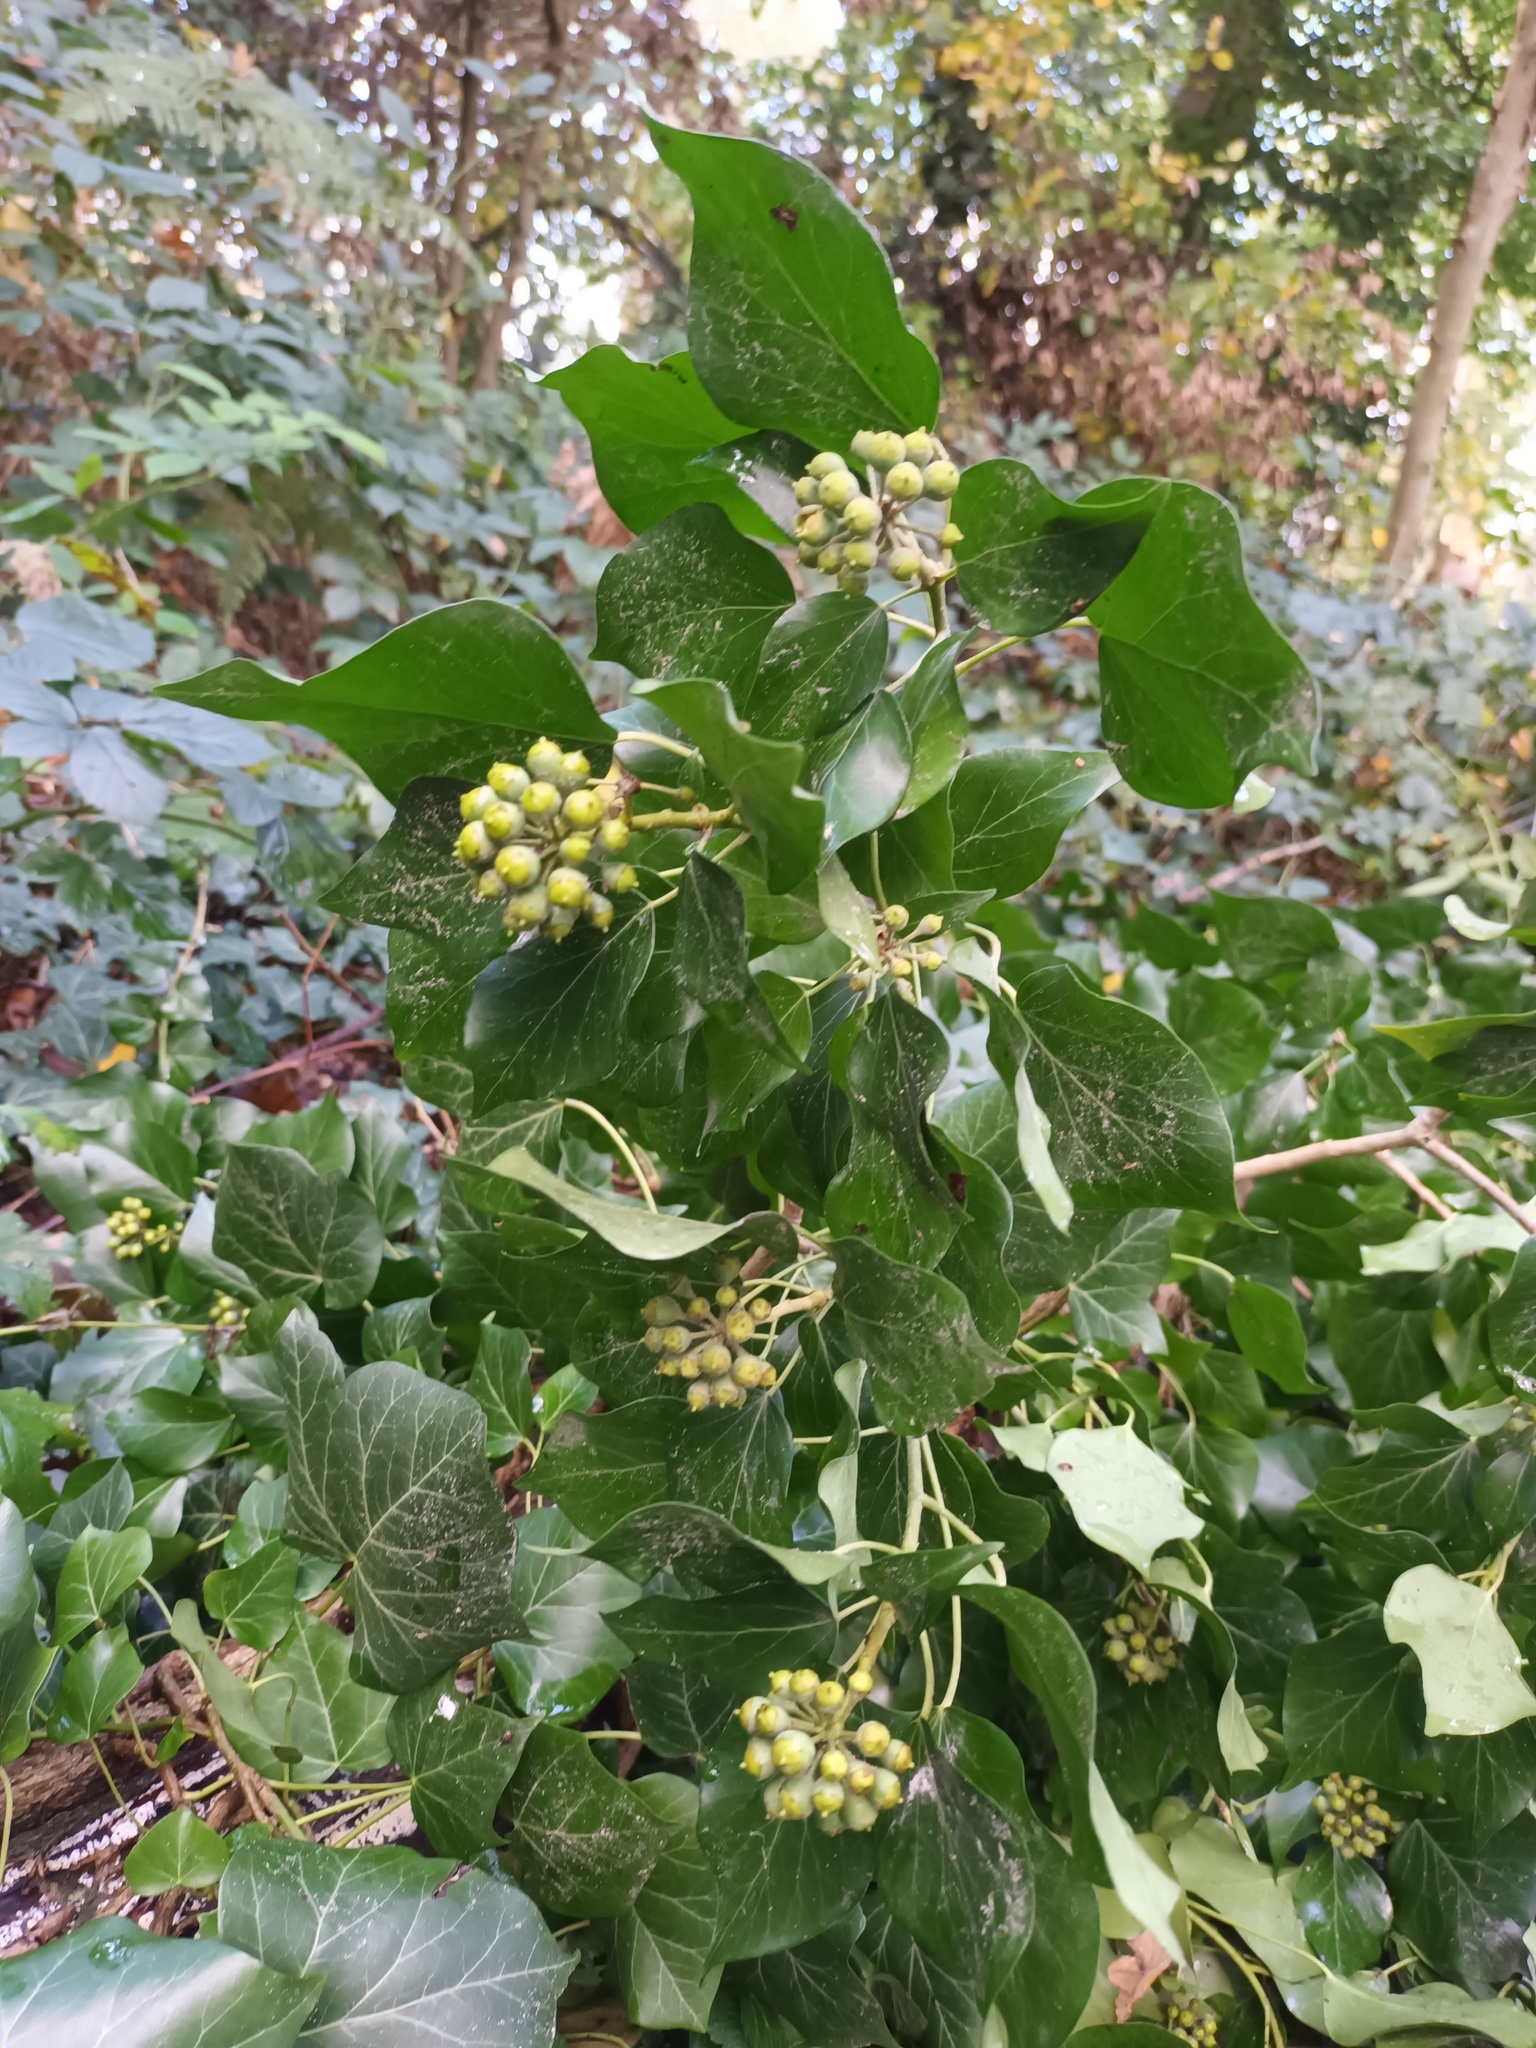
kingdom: Plantae
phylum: Tracheophyta
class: Magnoliopsida
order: Apiales
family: Araliaceae
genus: Hedera
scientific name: Hedera helix
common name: Ivy
